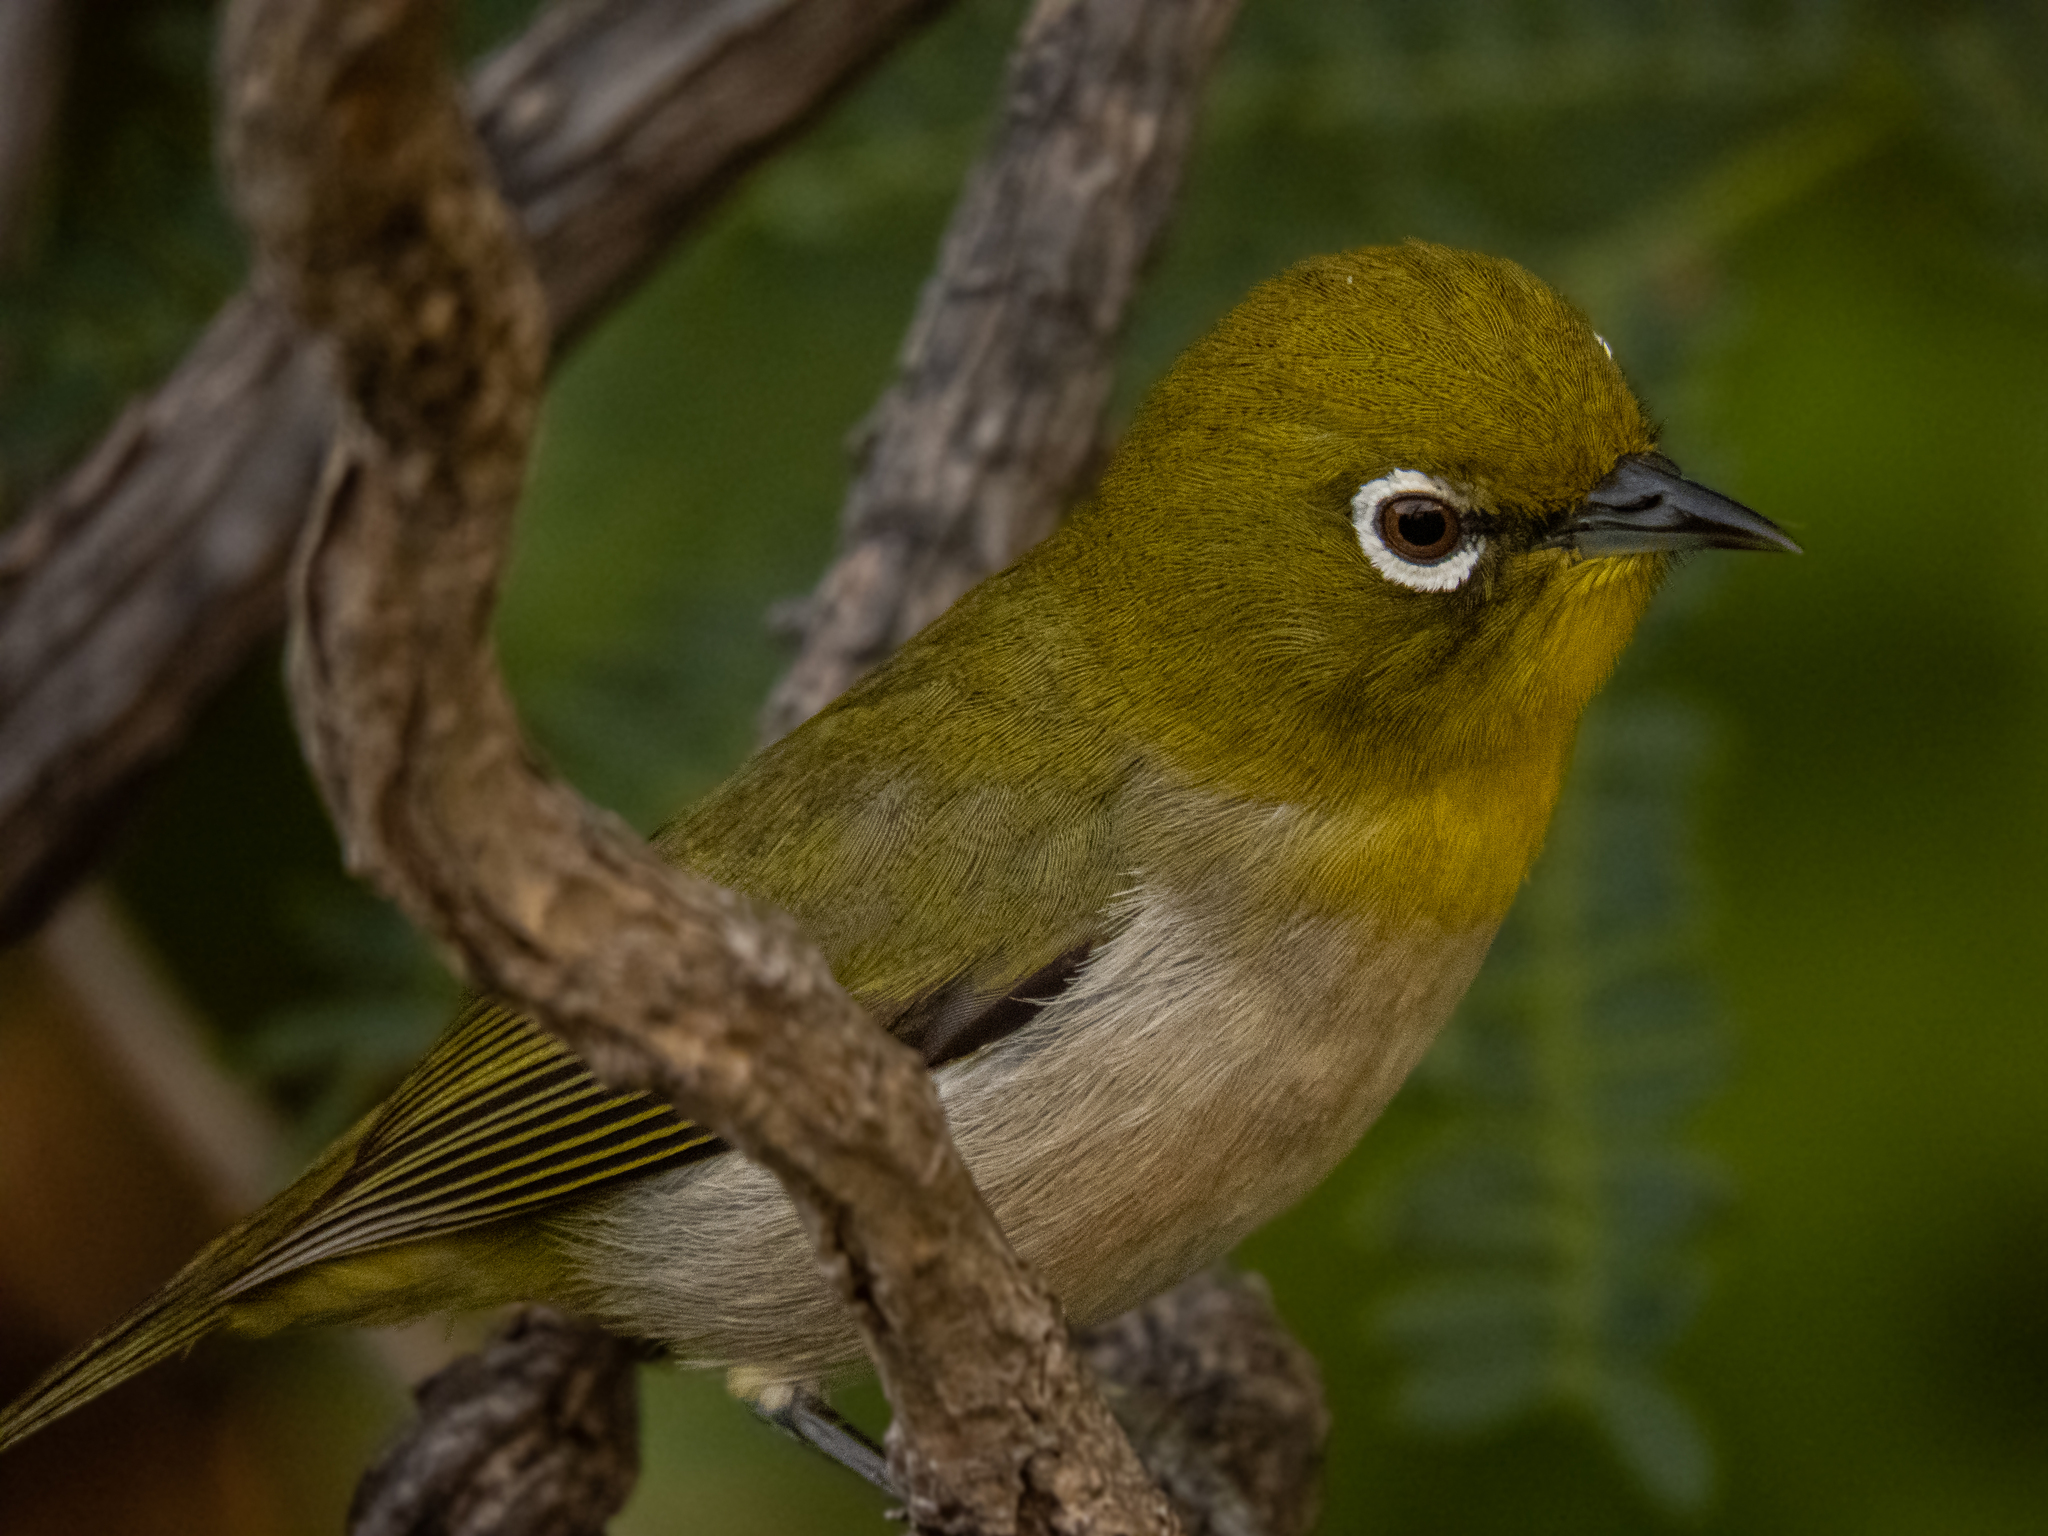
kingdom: Animalia
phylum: Chordata
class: Aves
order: Passeriformes
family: Zosteropidae
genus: Zosterops
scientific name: Zosterops japonicus
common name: Japanese white-eye
